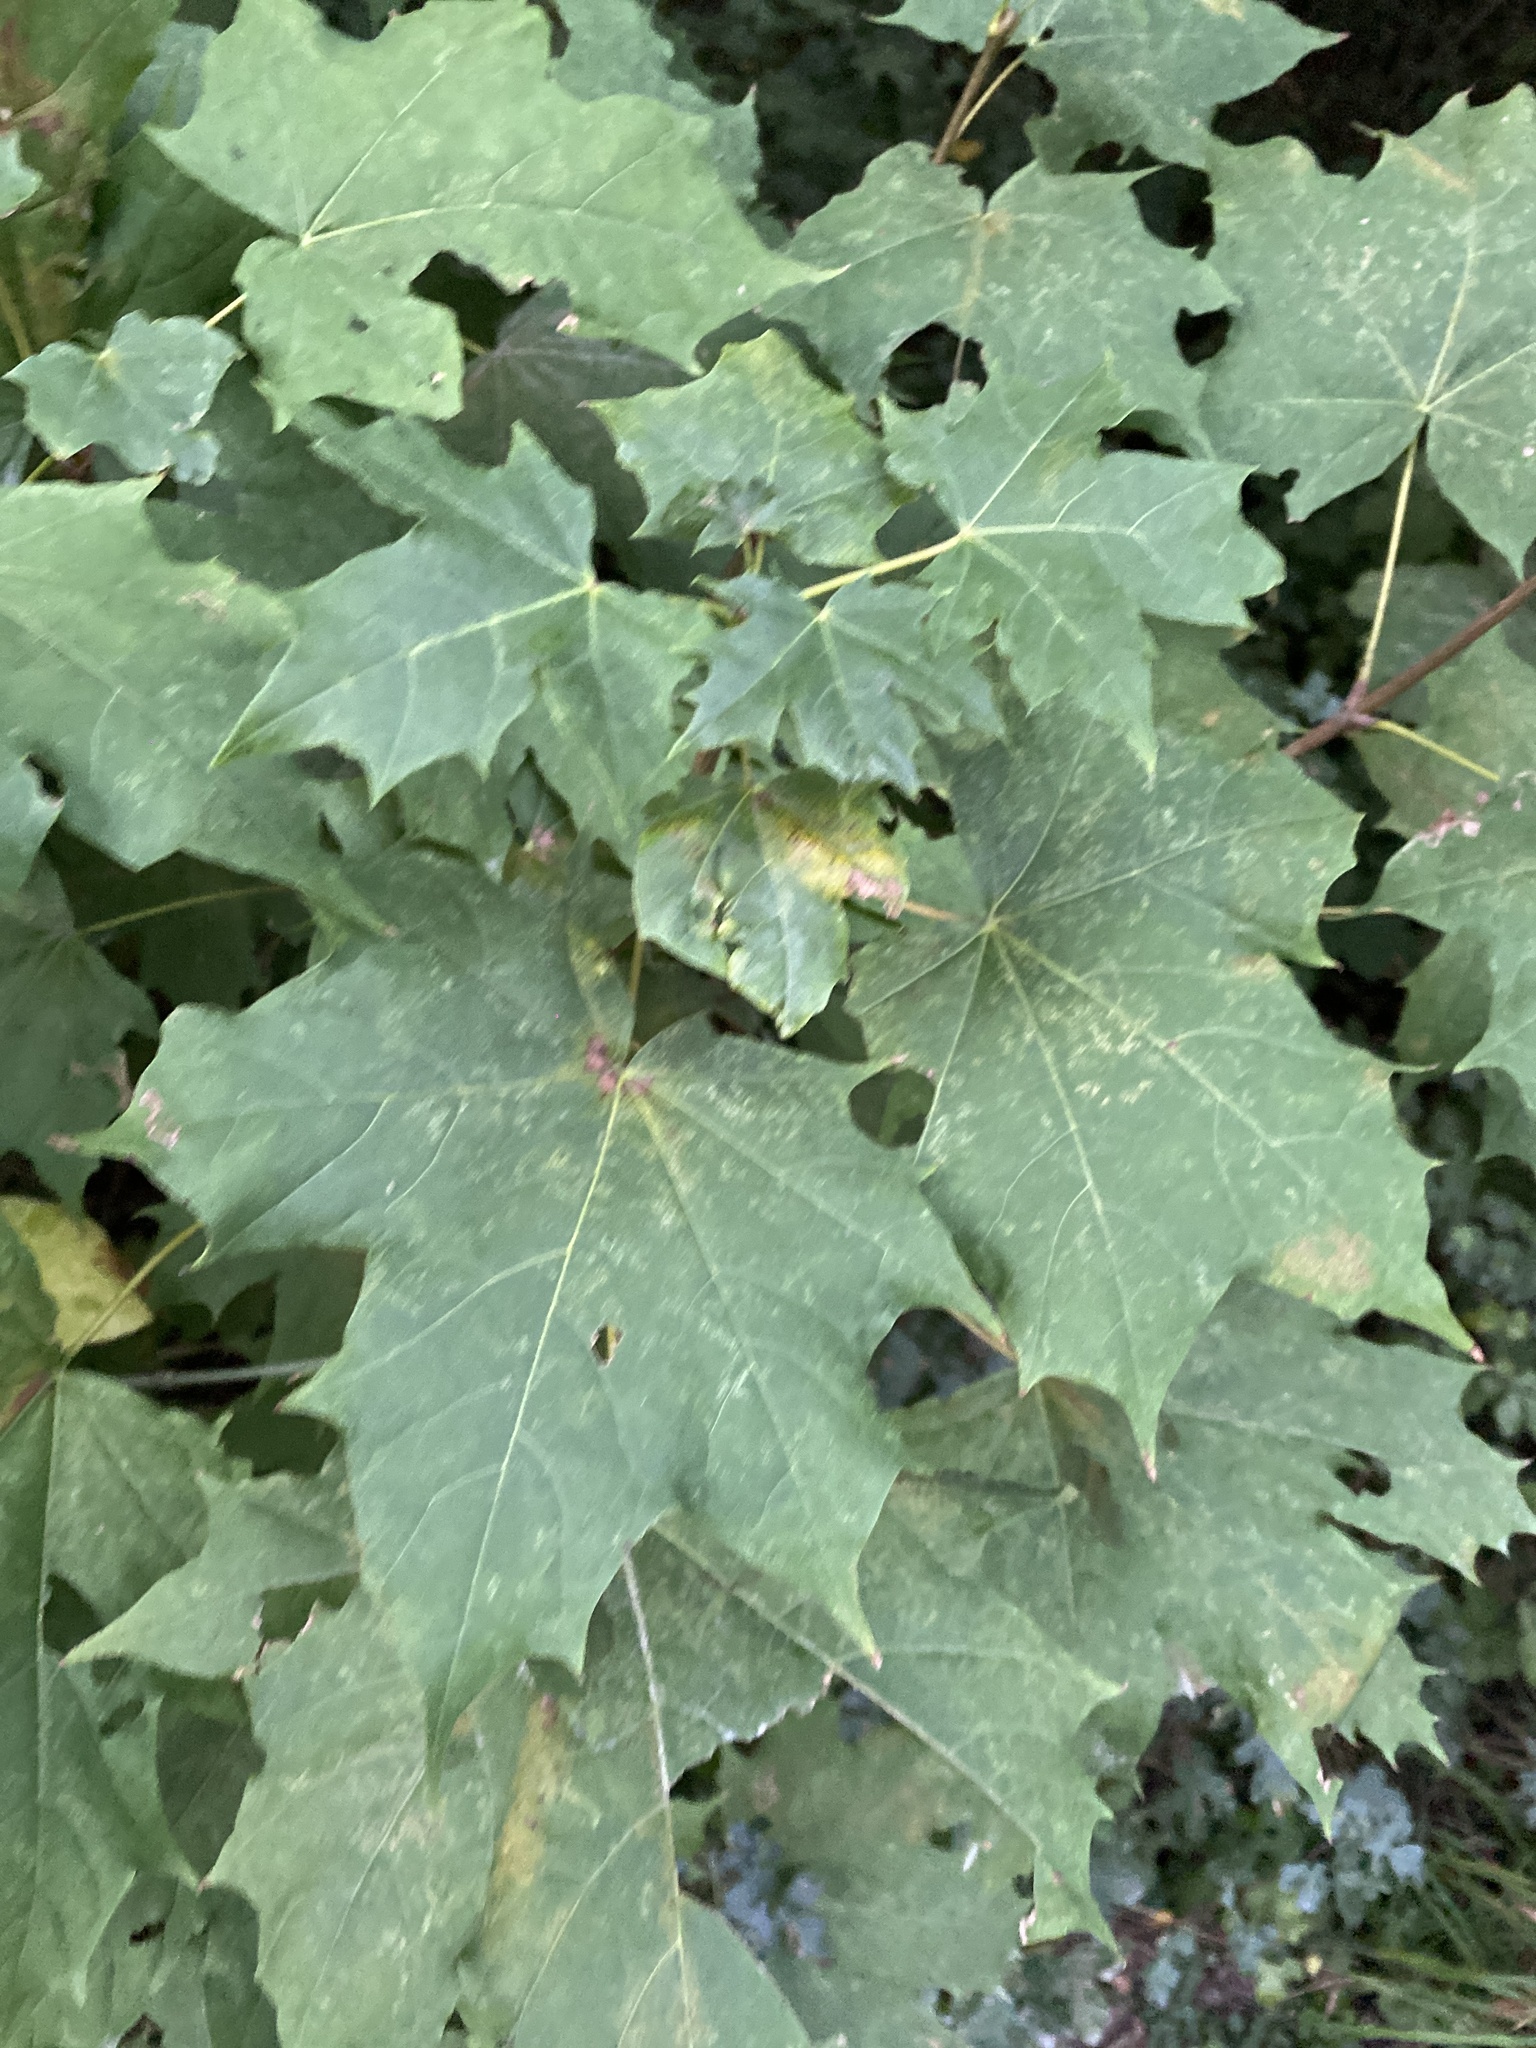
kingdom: Plantae
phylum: Tracheophyta
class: Magnoliopsida
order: Sapindales
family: Sapindaceae
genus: Acer
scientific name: Acer platanoides
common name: Norway maple
